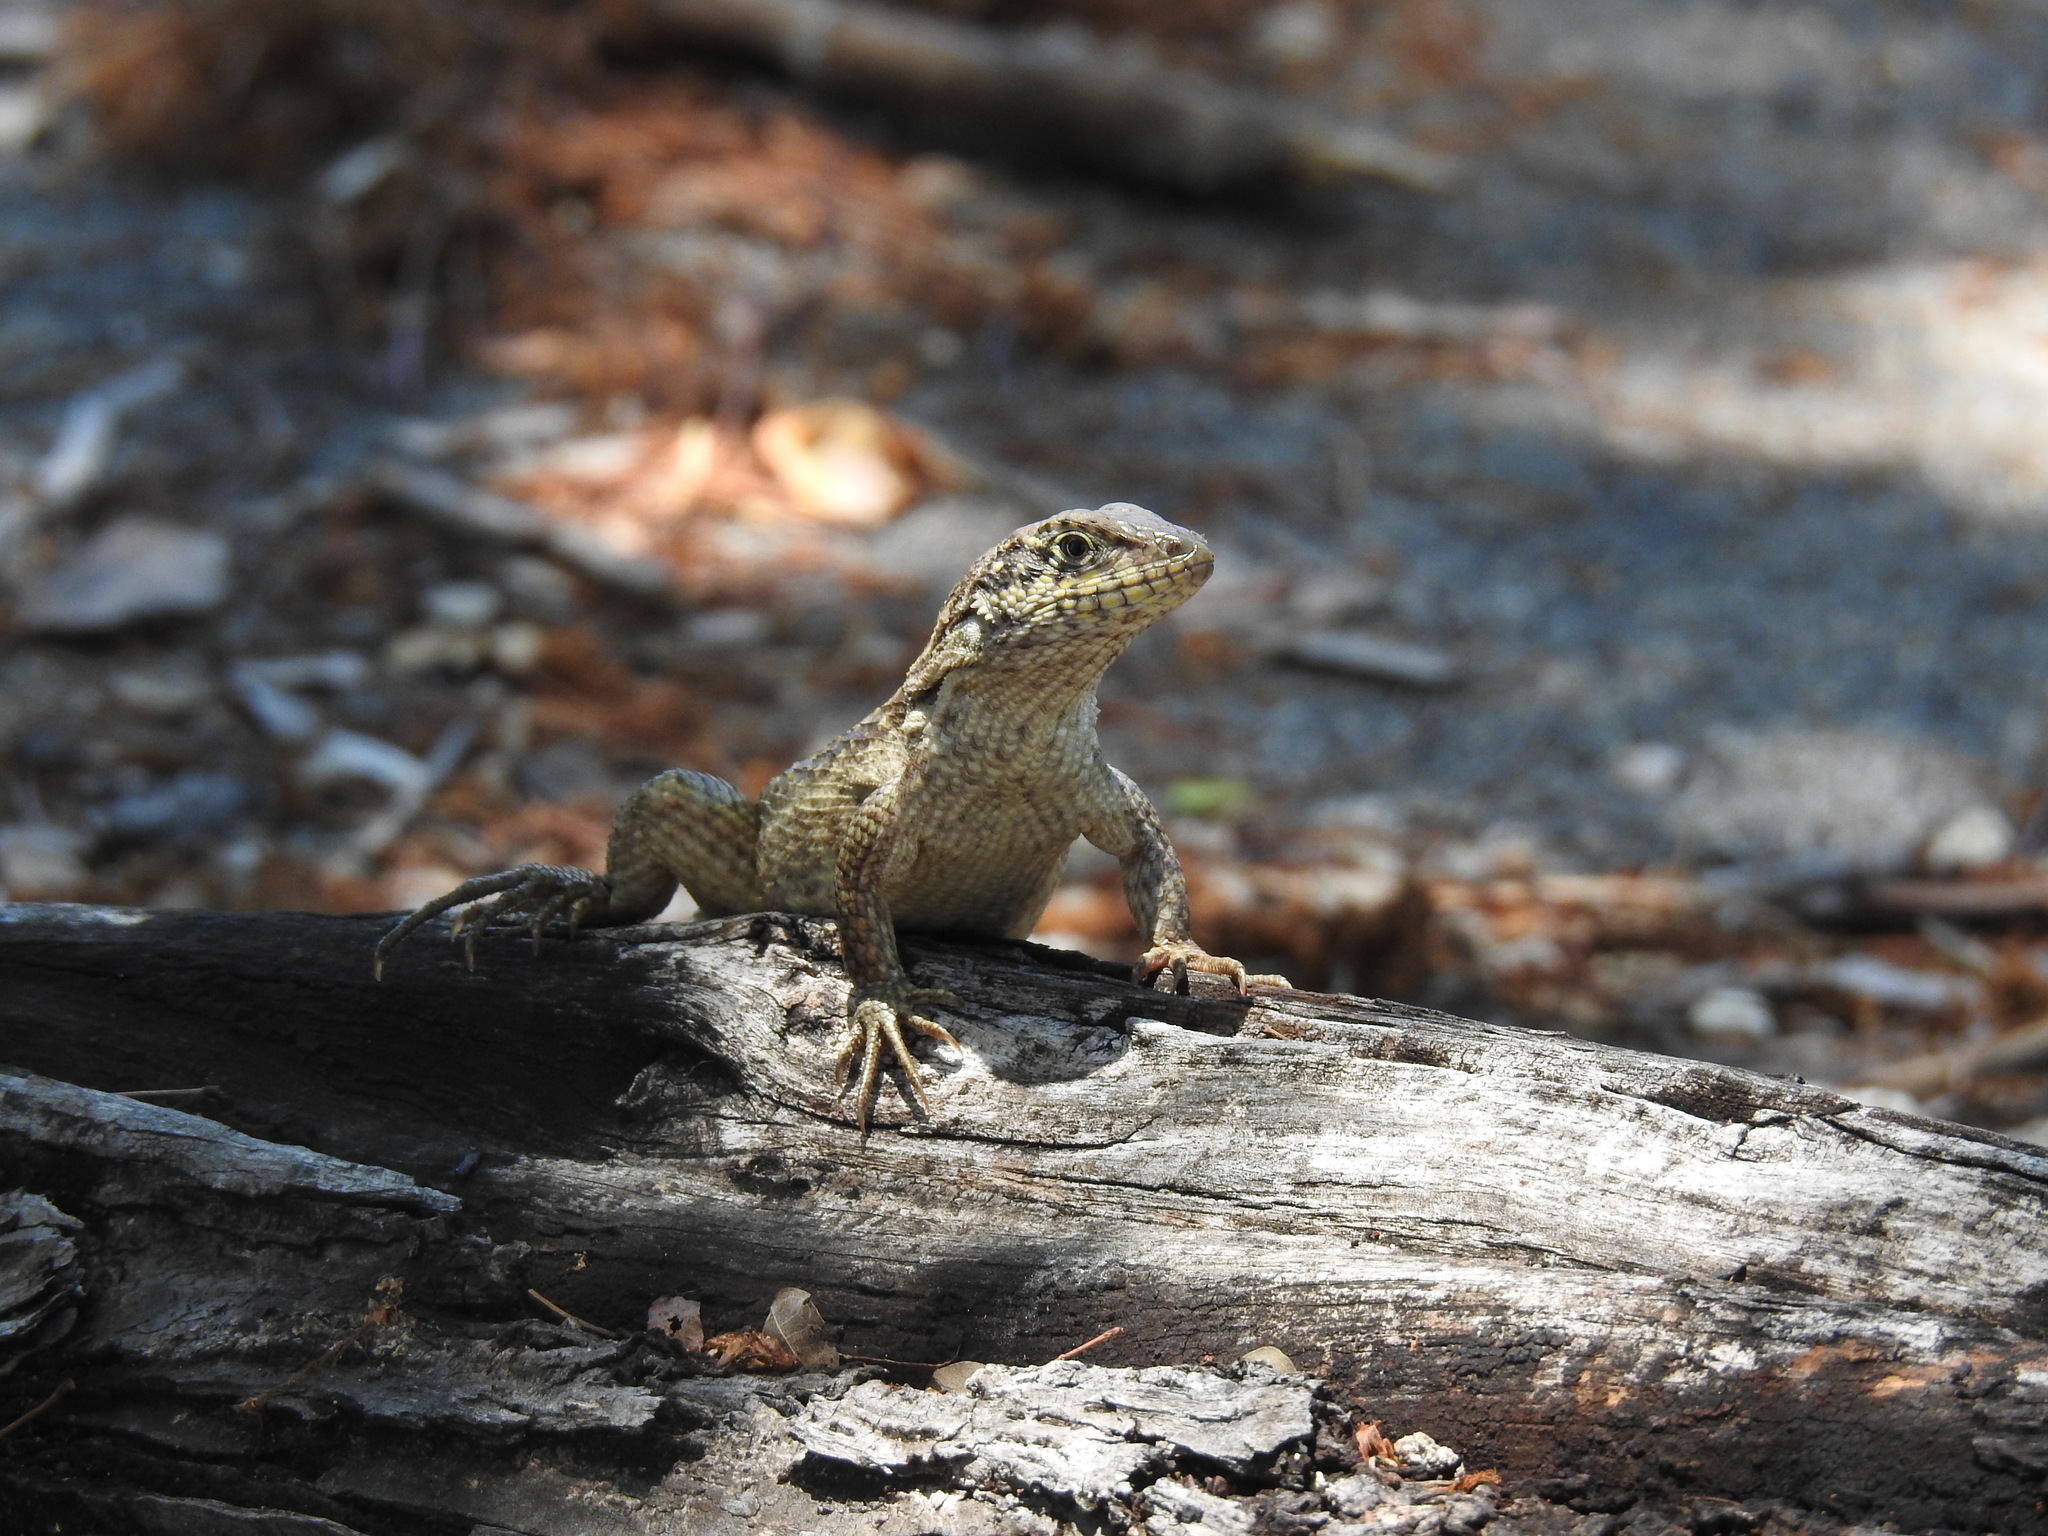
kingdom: Animalia
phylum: Chordata
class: Squamata
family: Leiocephalidae
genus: Leiocephalus
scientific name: Leiocephalus carinatus
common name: Northern curly-tailed lizard
